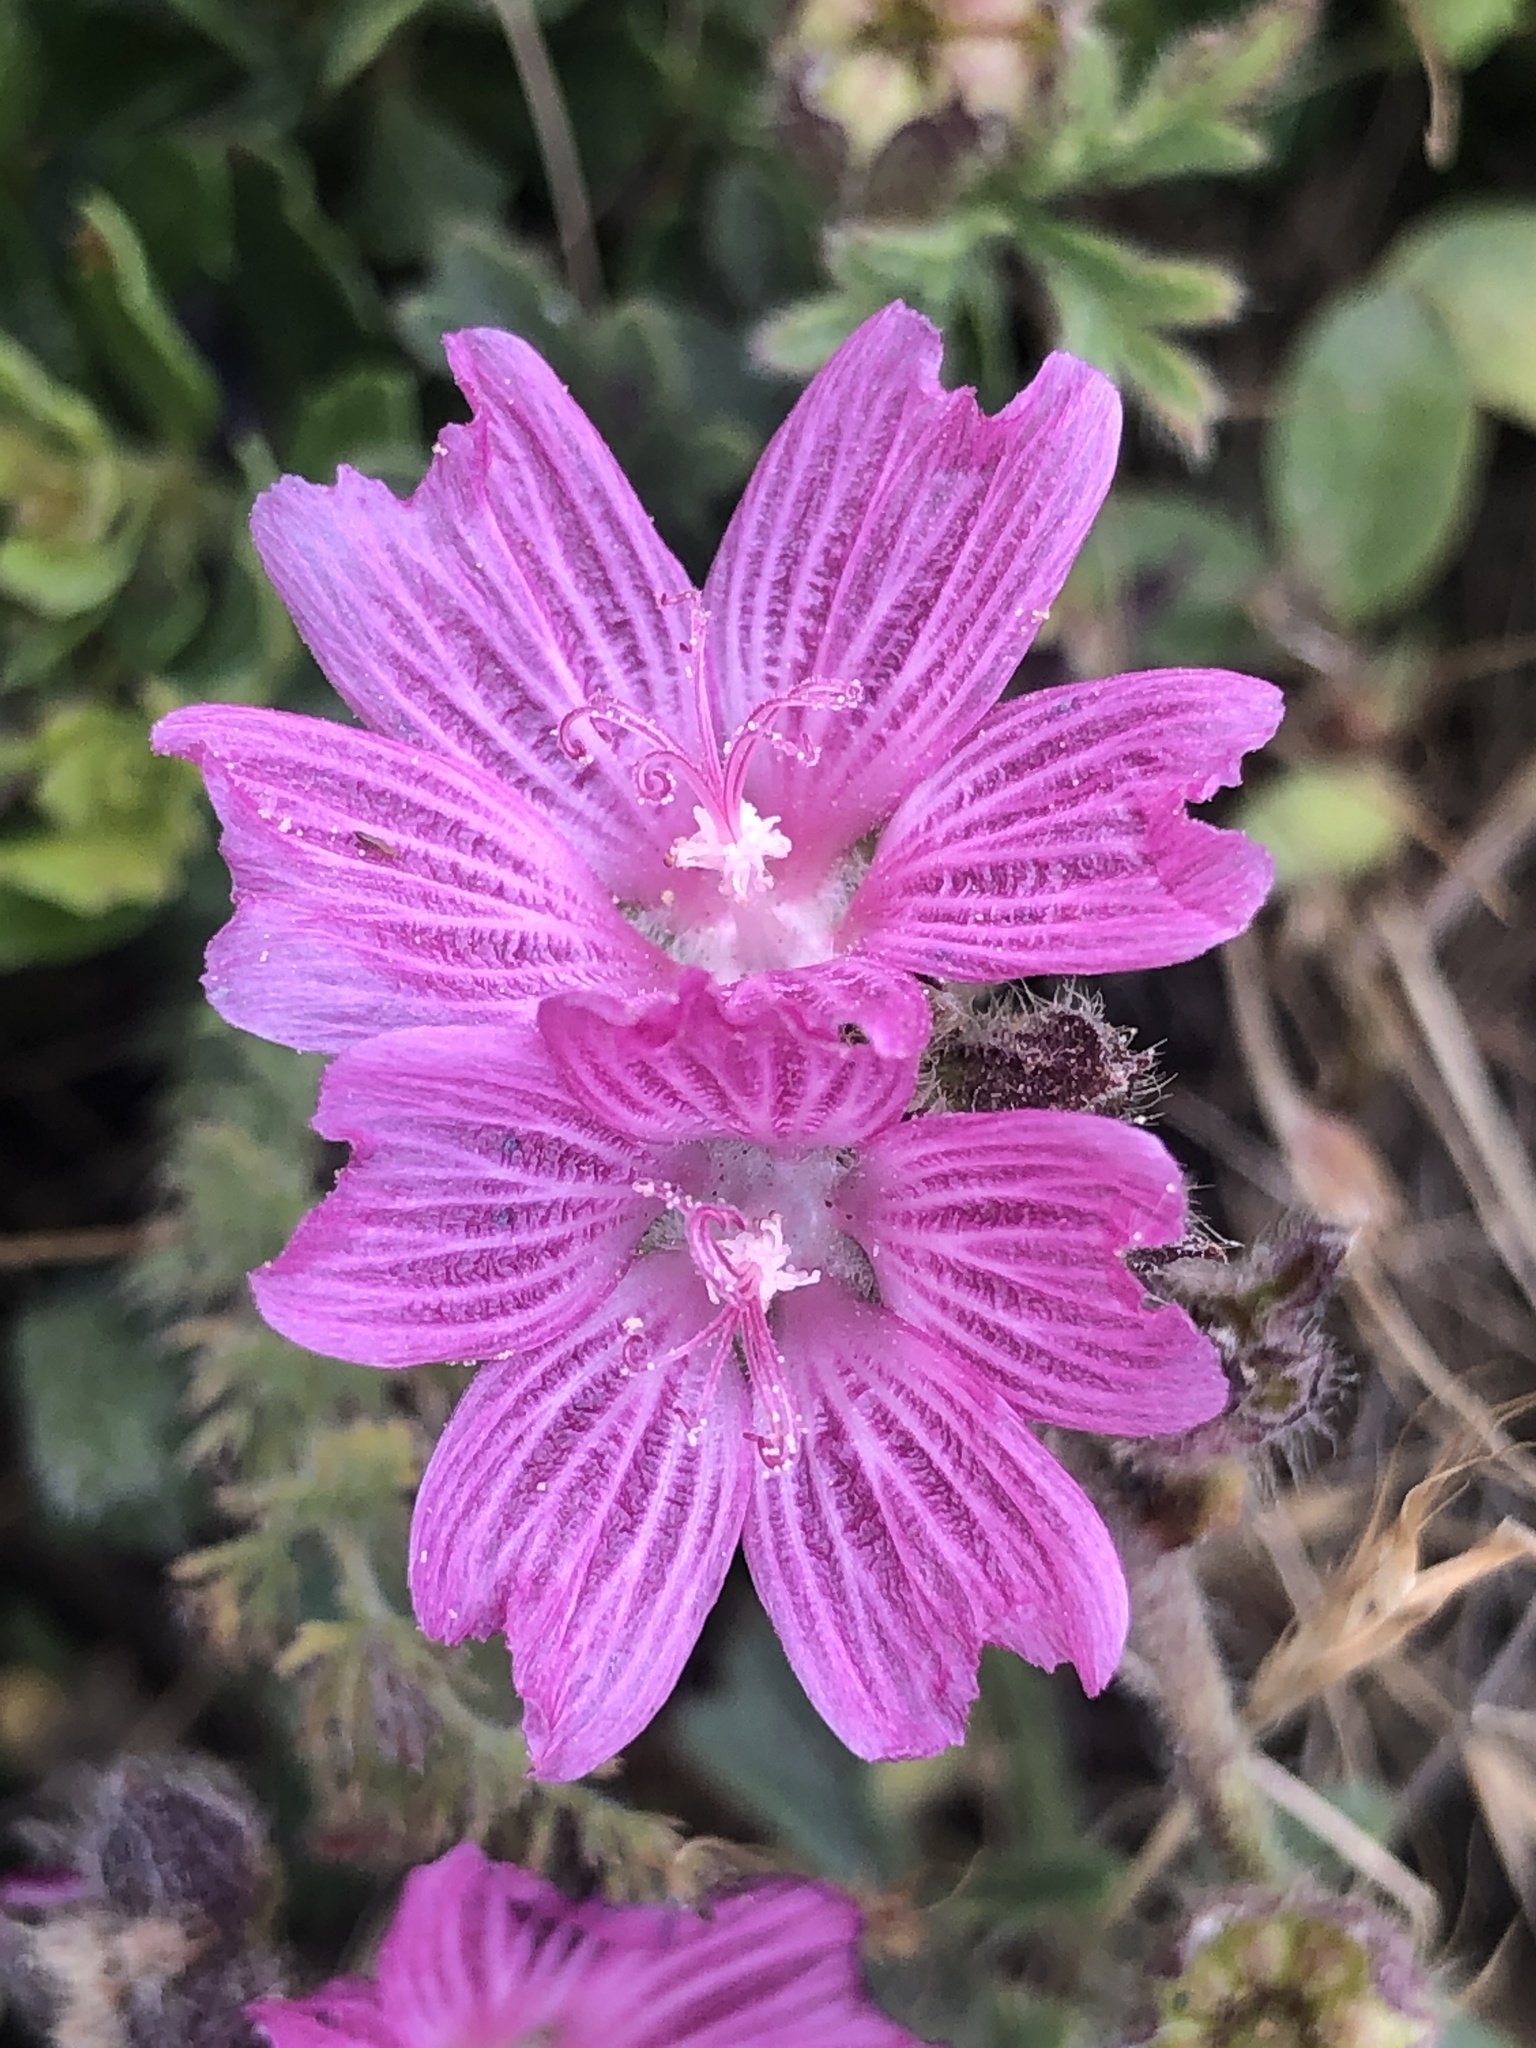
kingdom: Plantae
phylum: Tracheophyta
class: Magnoliopsida
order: Malvales
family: Malvaceae
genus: Sidalcea
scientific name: Sidalcea malviflora
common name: Greek mallow
